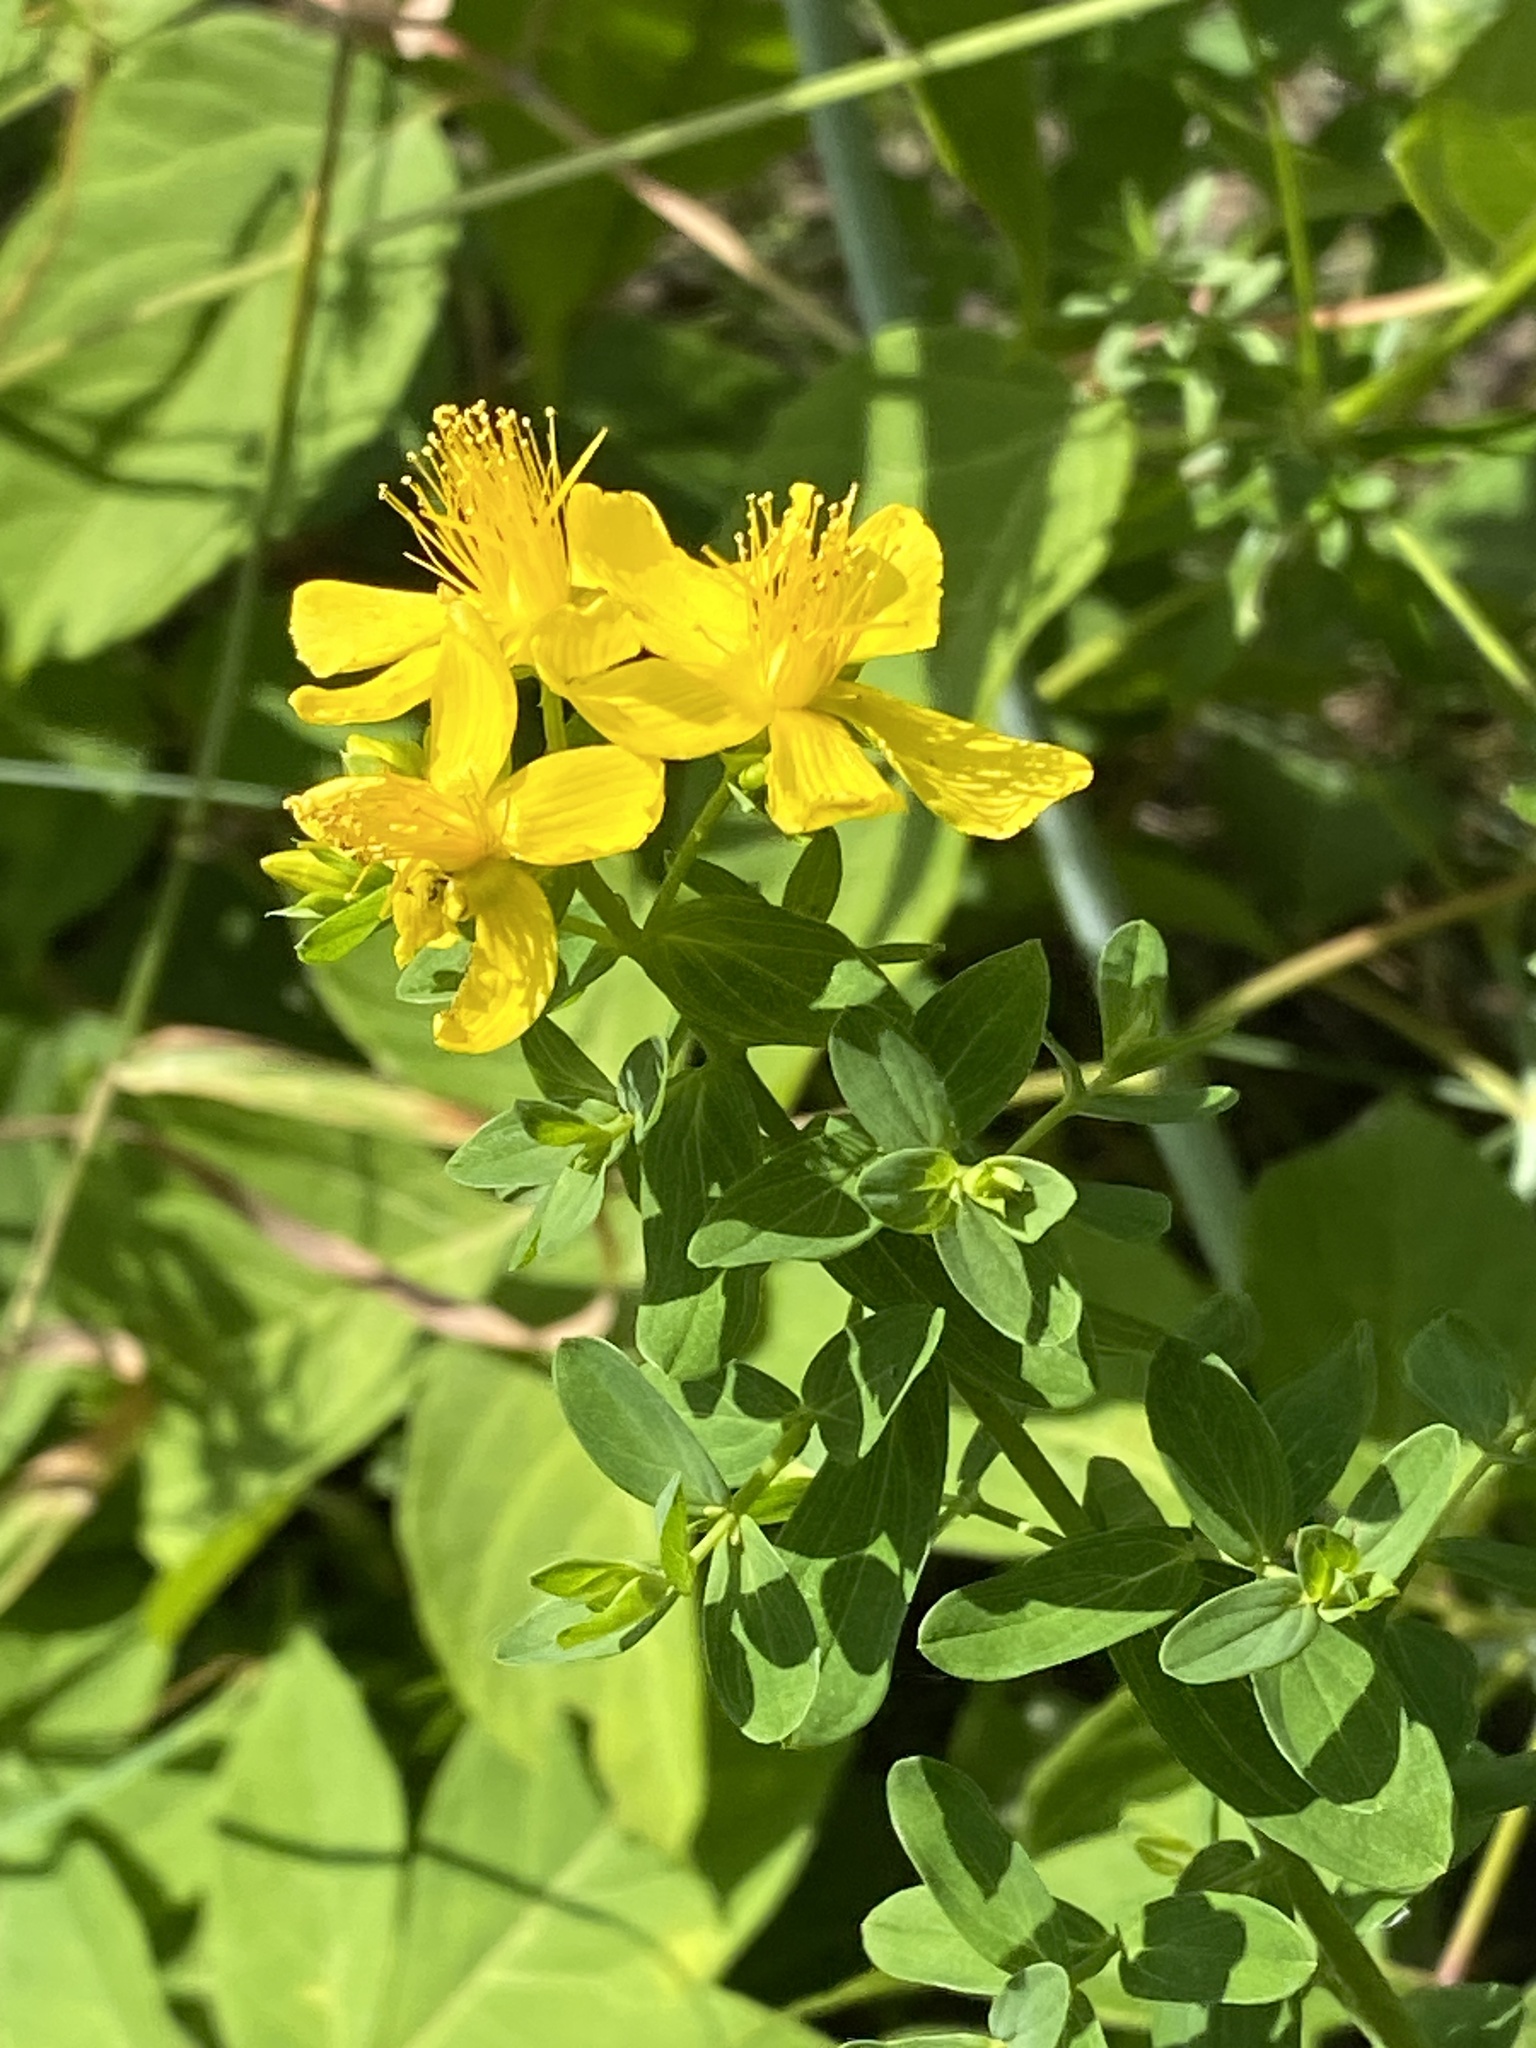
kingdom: Plantae
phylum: Tracheophyta
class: Magnoliopsida
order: Malpighiales
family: Hypericaceae
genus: Hypericum
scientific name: Hypericum perforatum
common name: Common st. johnswort
